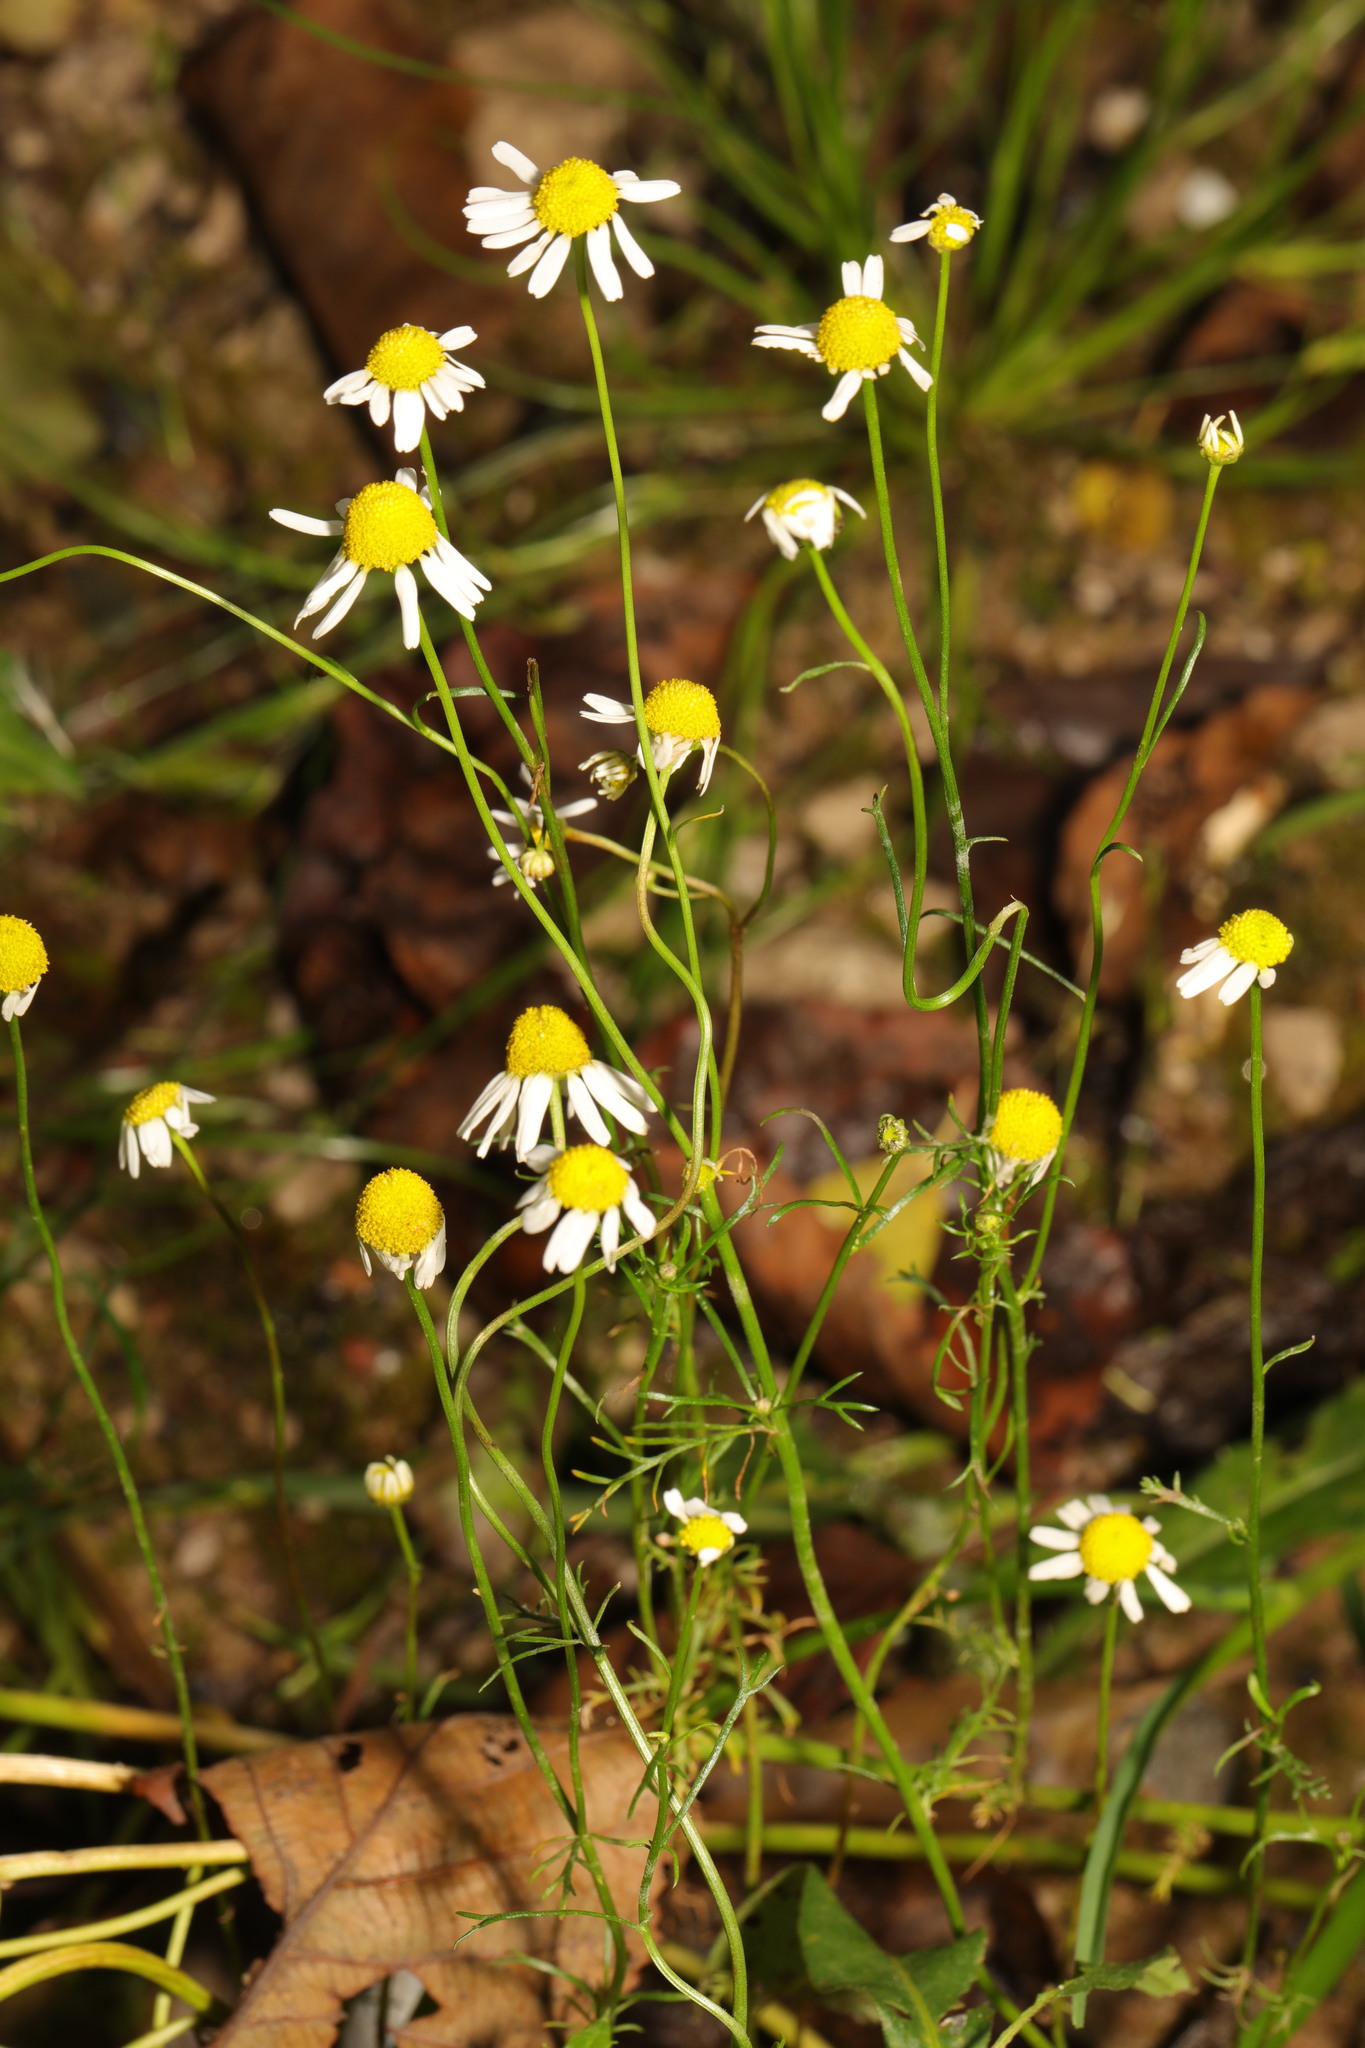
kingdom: Plantae
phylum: Tracheophyta
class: Magnoliopsida
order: Asterales
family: Asteraceae
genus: Matricaria
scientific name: Matricaria chamomilla
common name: Scented mayweed
